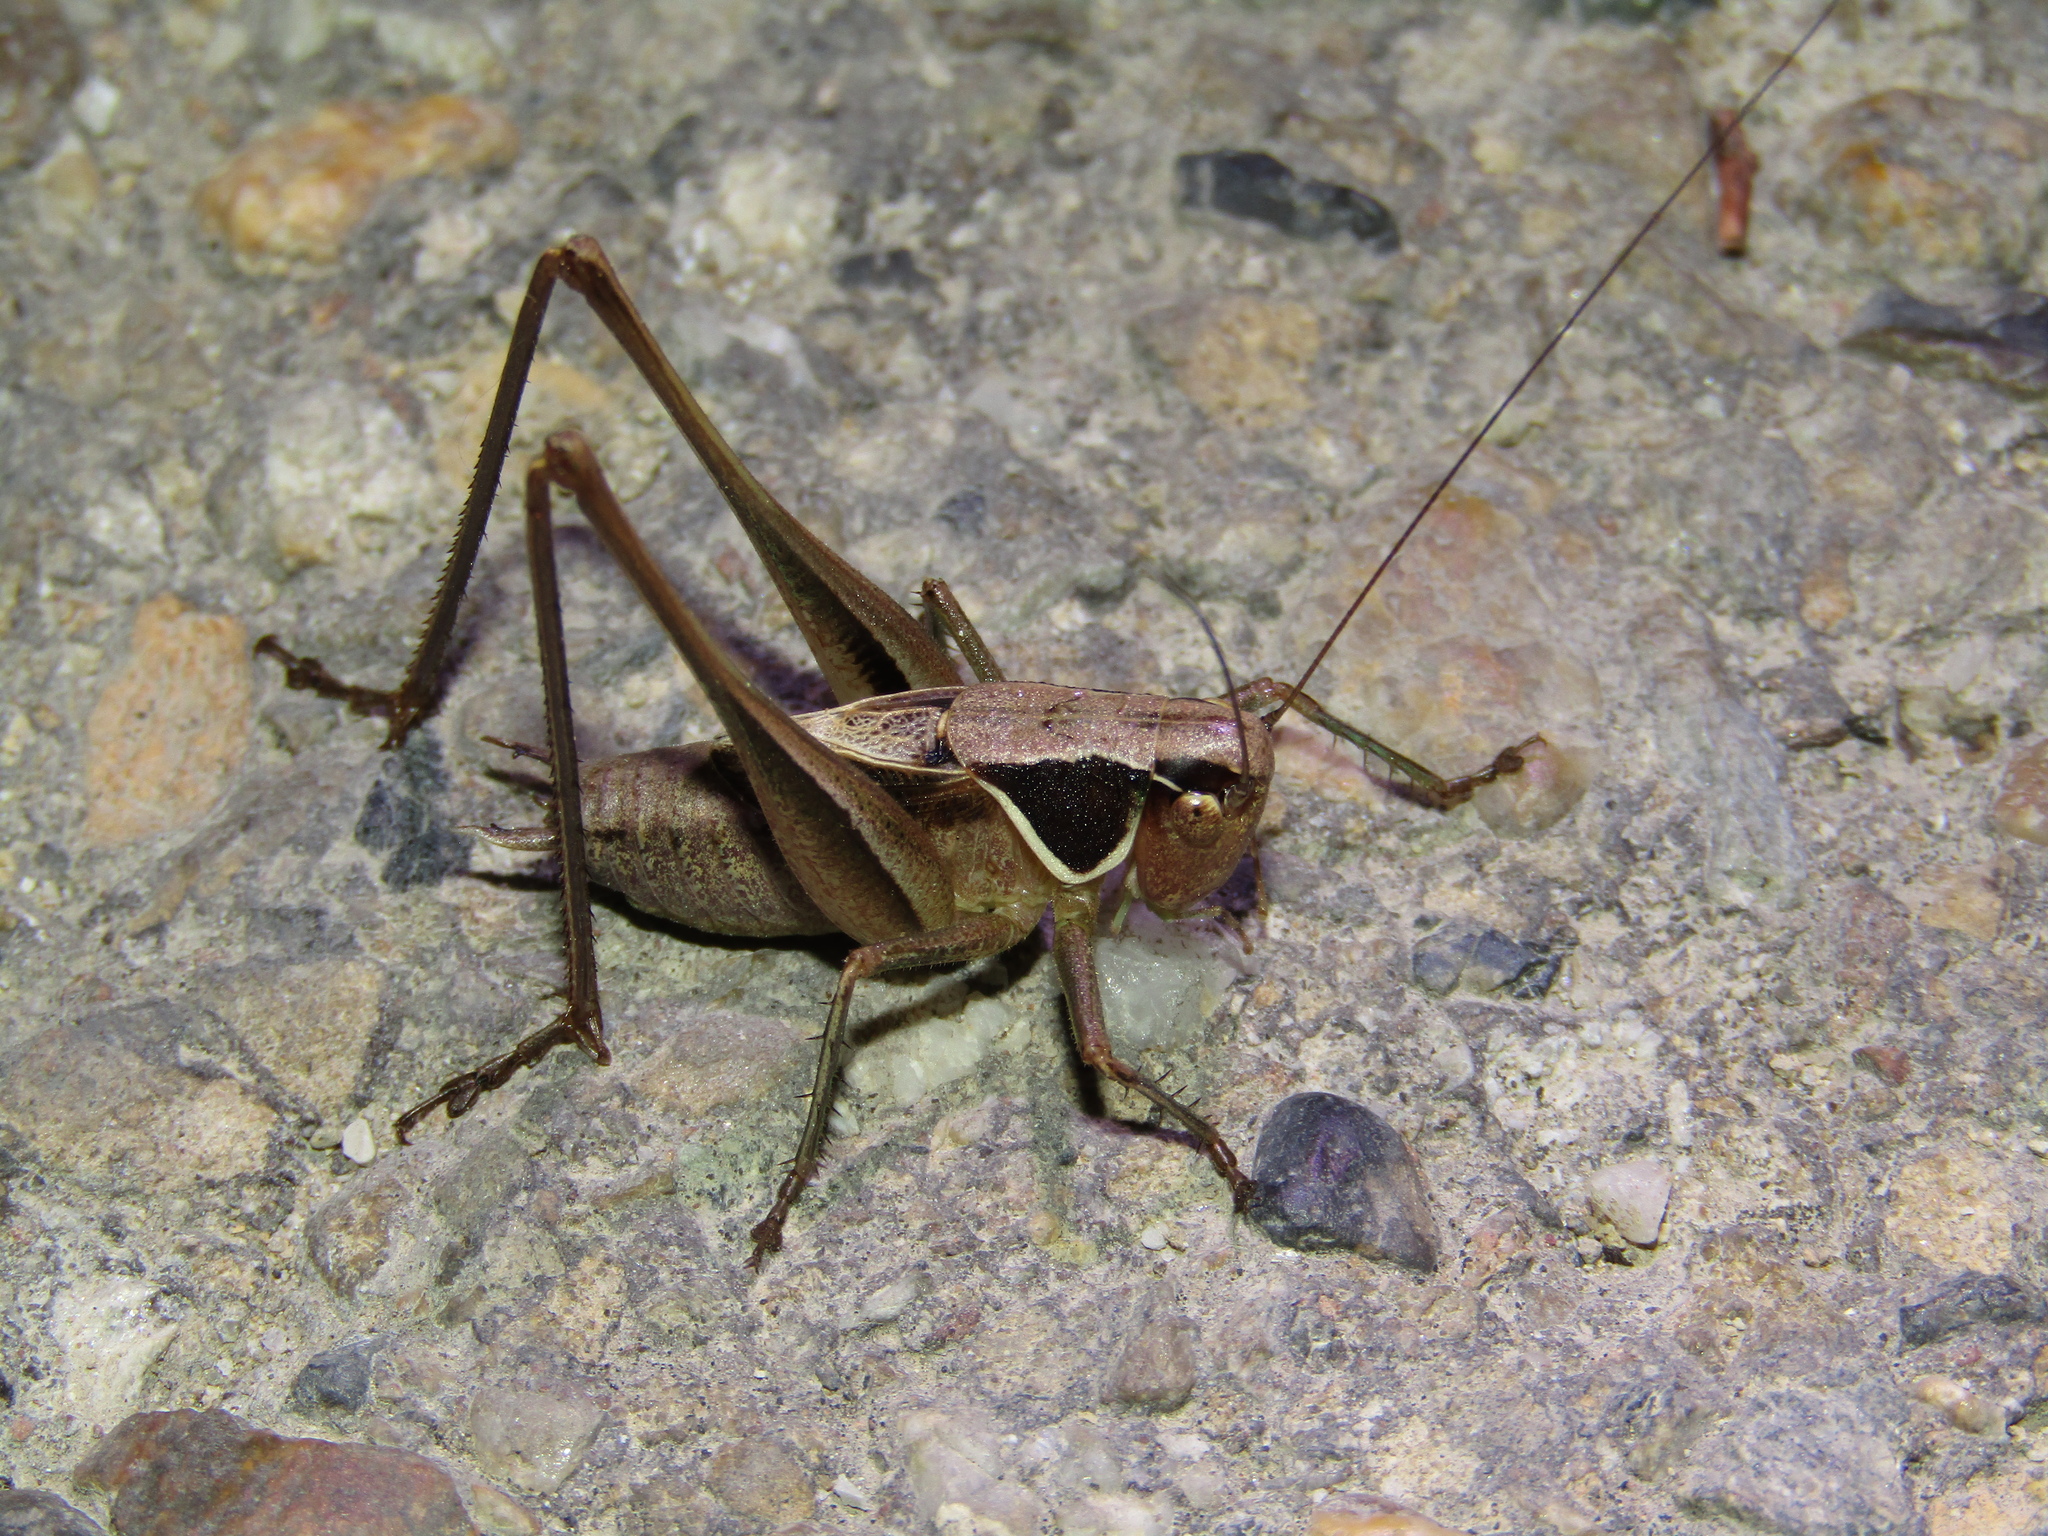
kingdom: Animalia
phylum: Arthropoda
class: Insecta
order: Orthoptera
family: Tettigoniidae
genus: Sepiana
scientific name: Sepiana sepium
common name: Sepia bush-cricket
